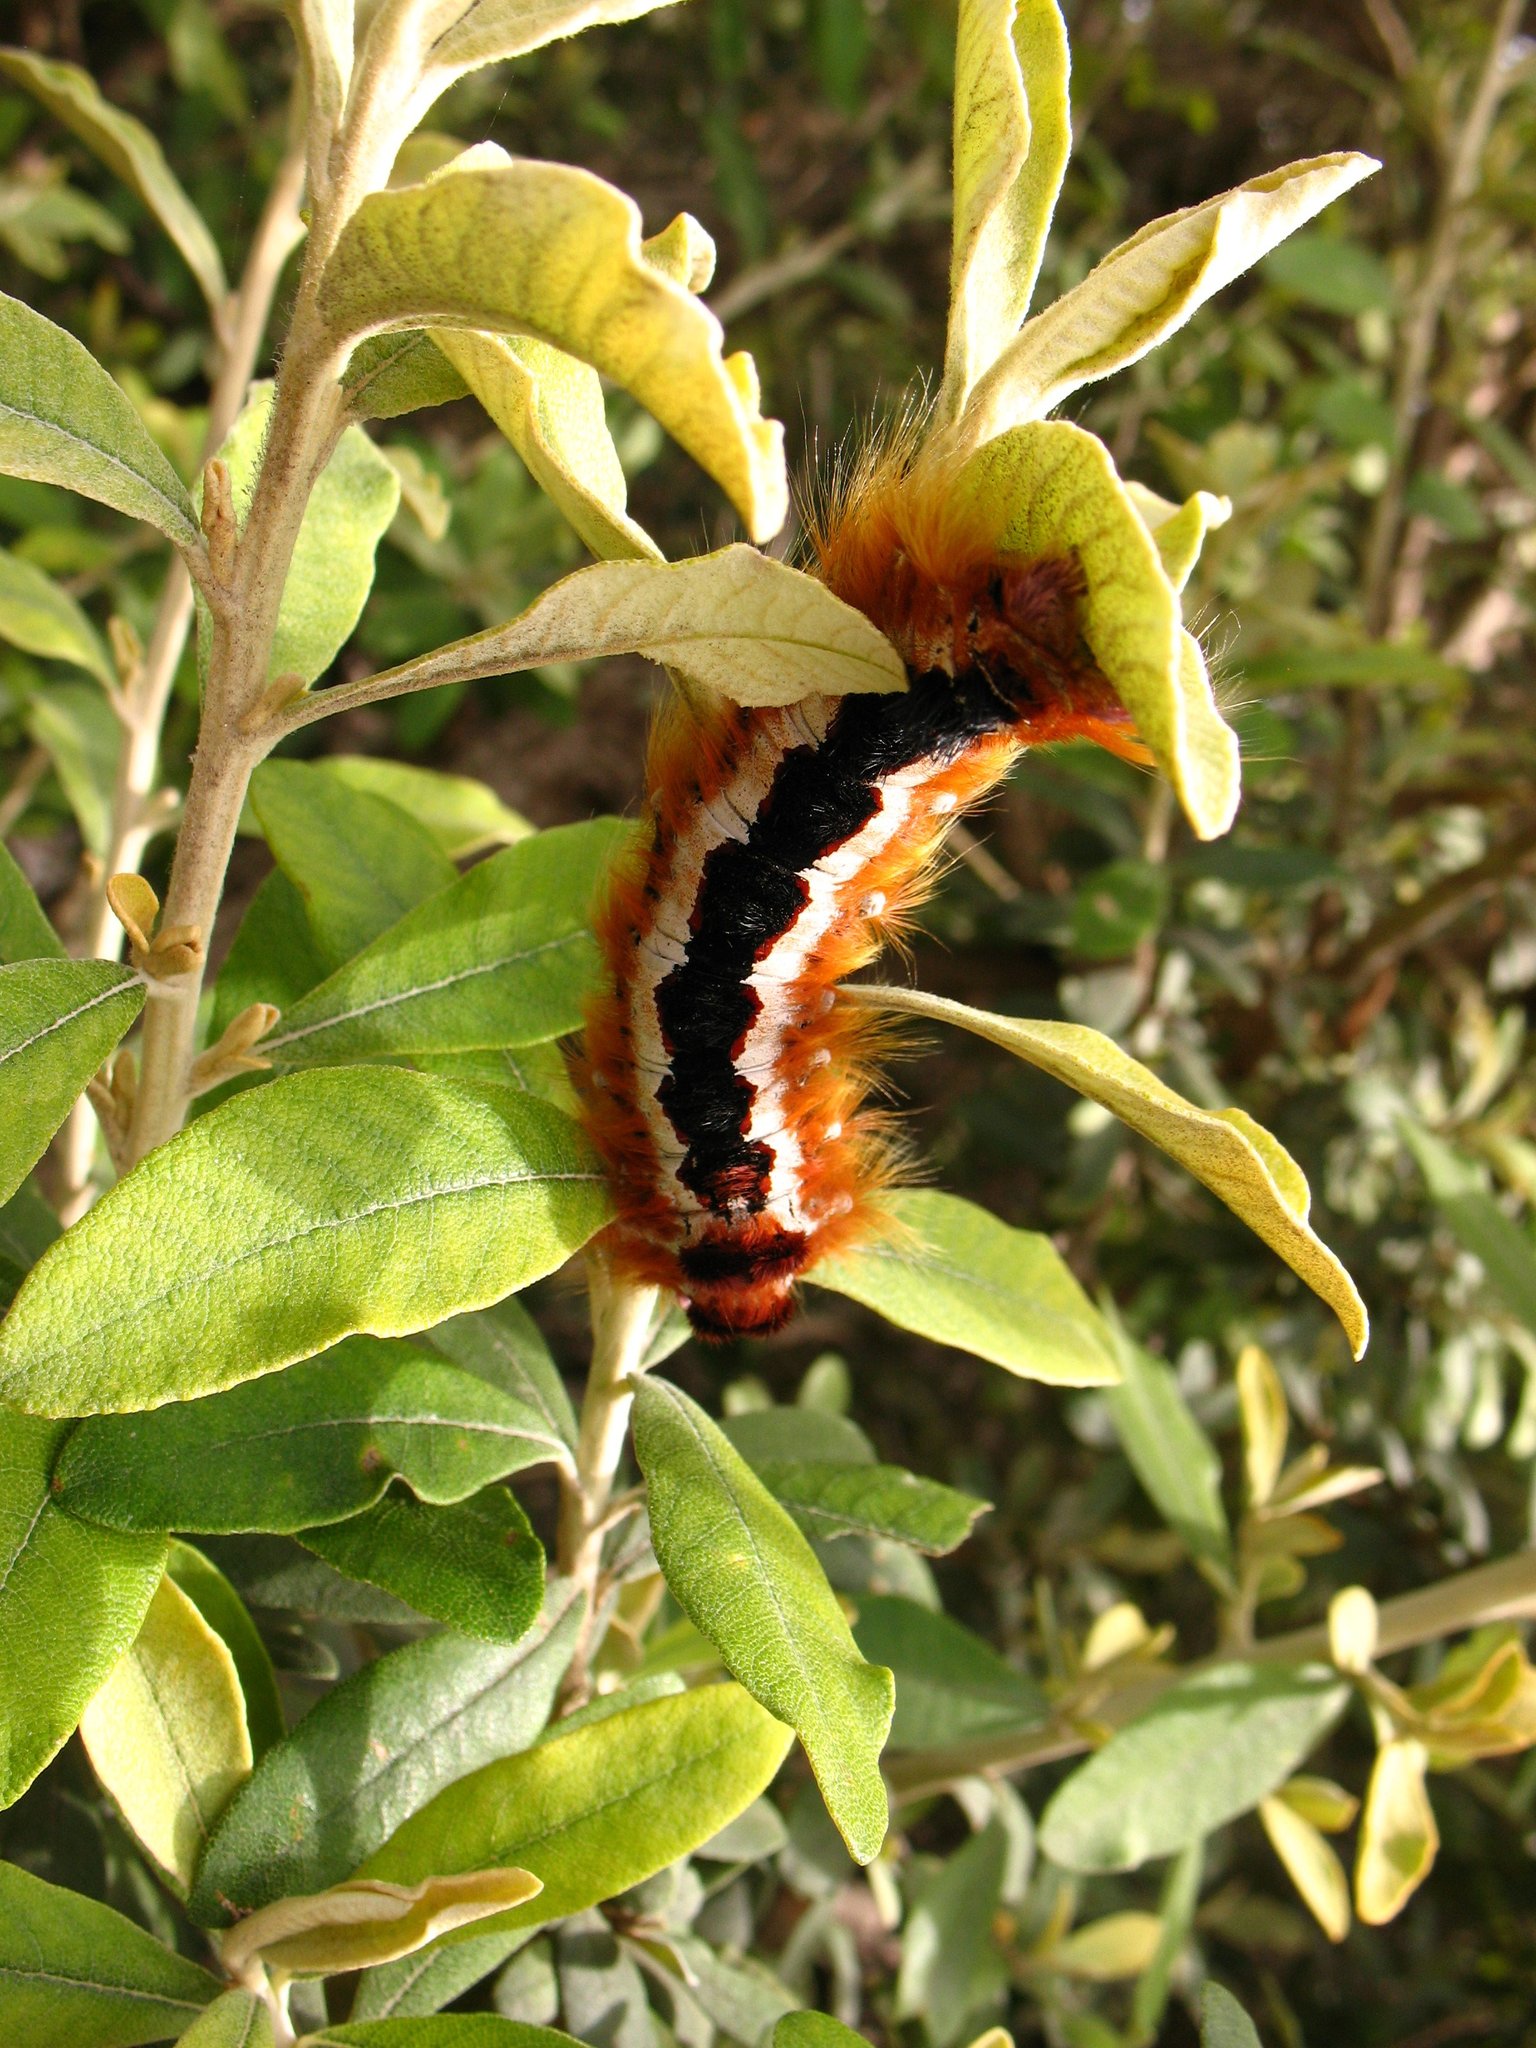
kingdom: Animalia
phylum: Arthropoda
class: Insecta
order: Lepidoptera
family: Lasiocampidae
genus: Eutricha
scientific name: Eutricha capensis
